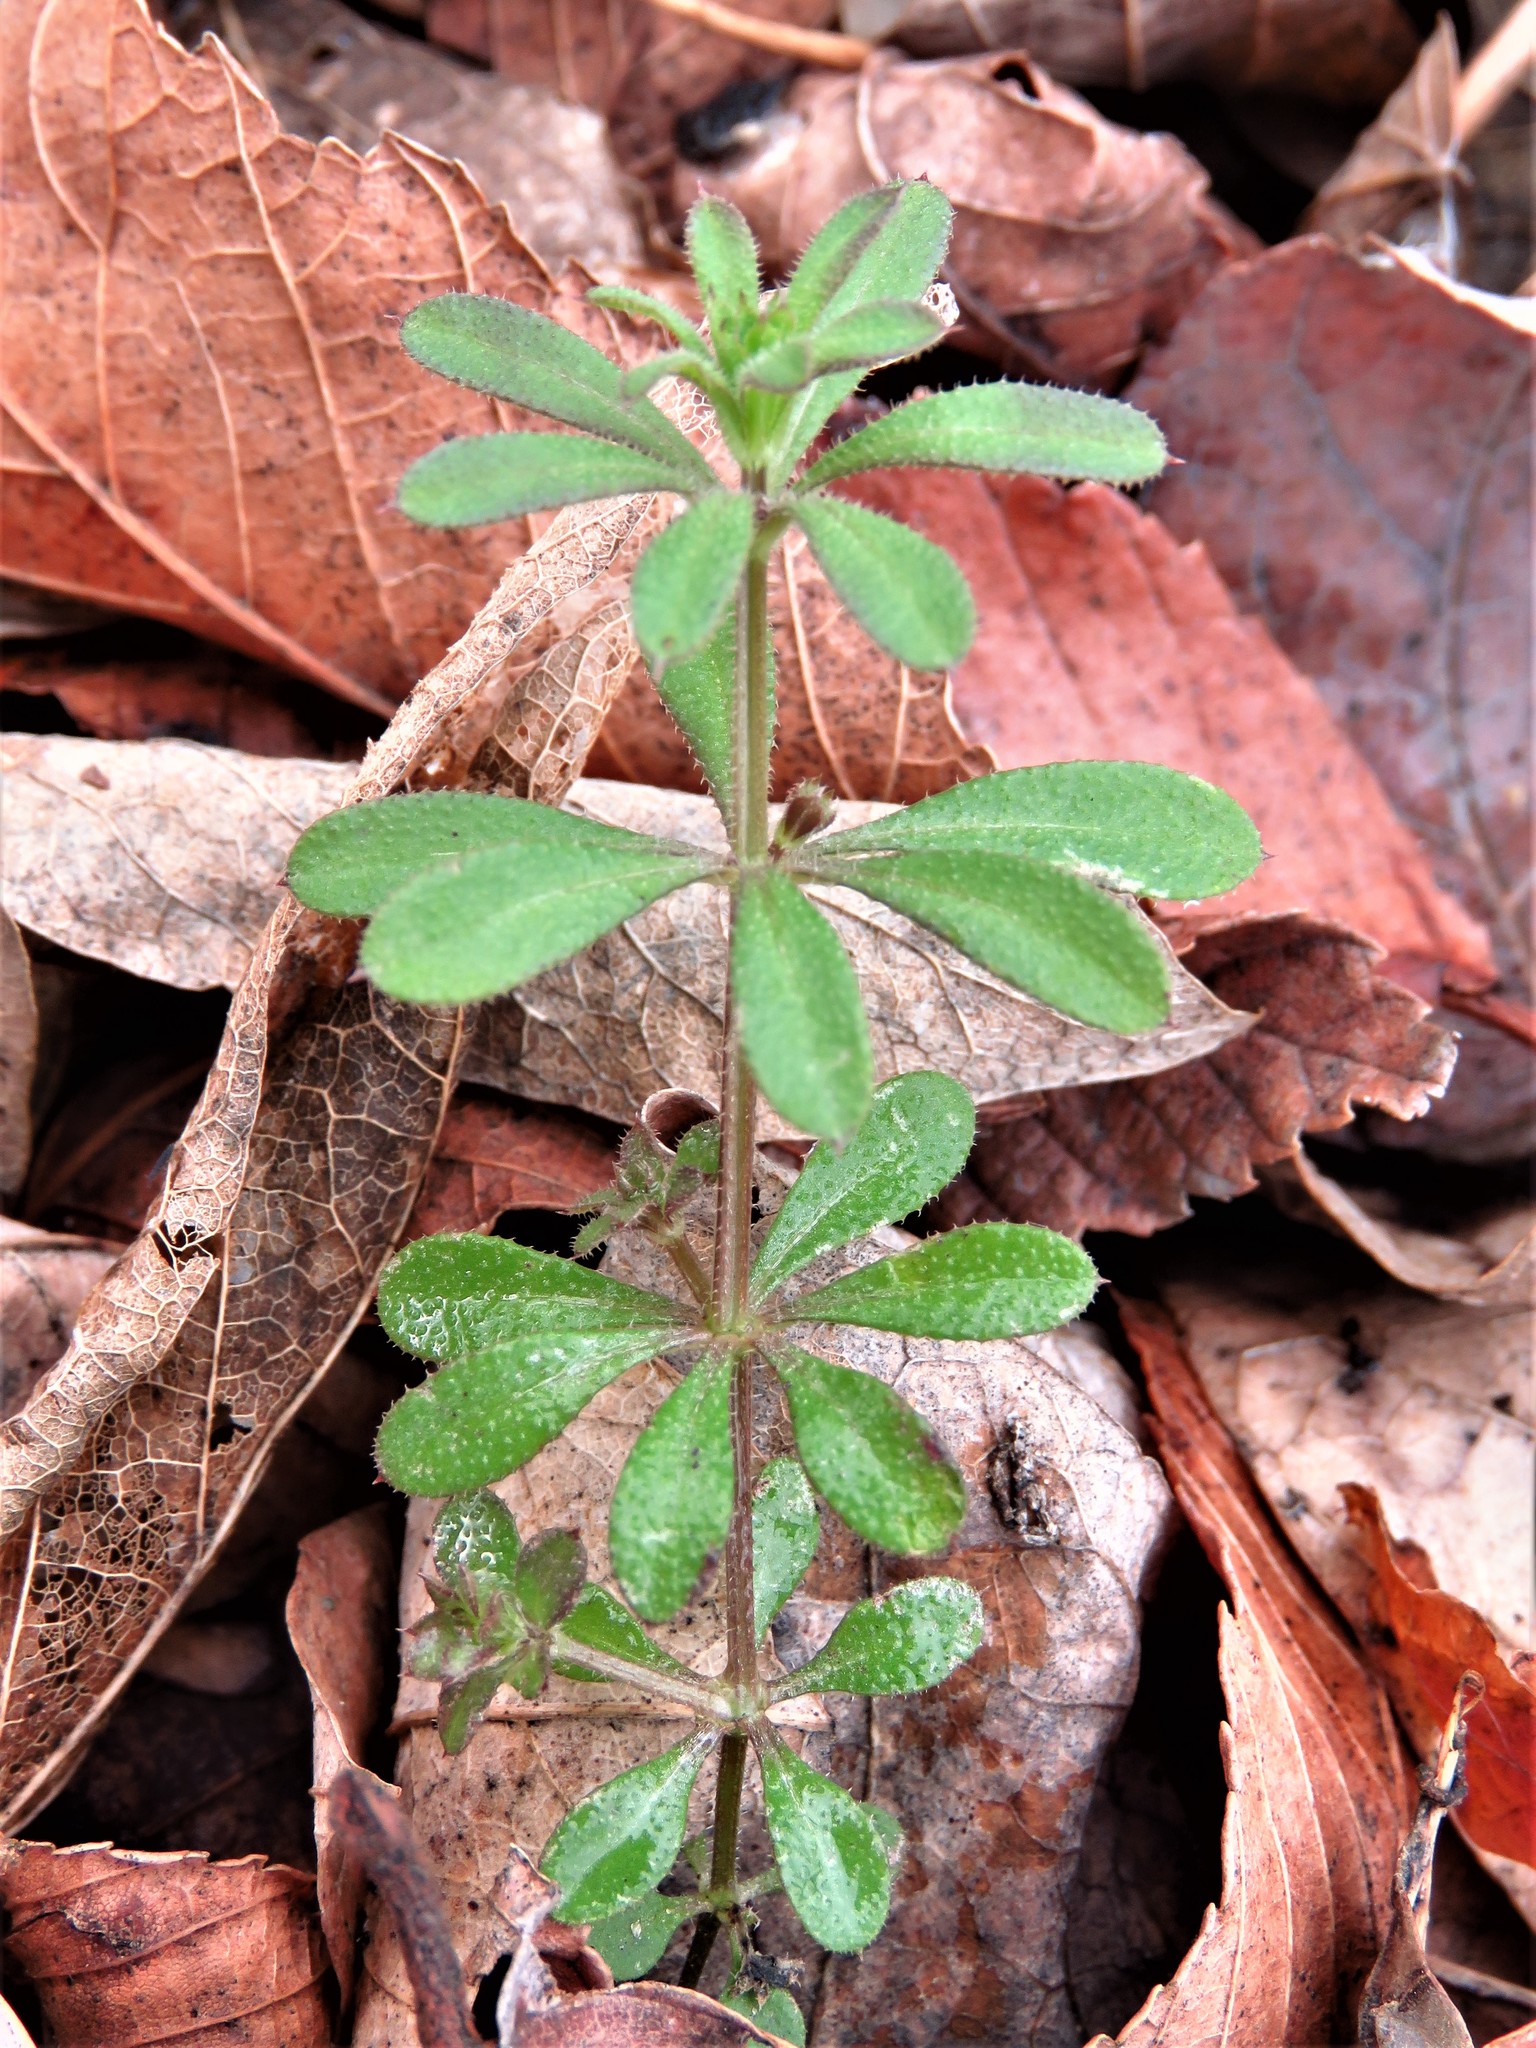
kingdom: Plantae
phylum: Tracheophyta
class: Magnoliopsida
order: Gentianales
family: Rubiaceae
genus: Galium
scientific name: Galium aparine
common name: Cleavers
